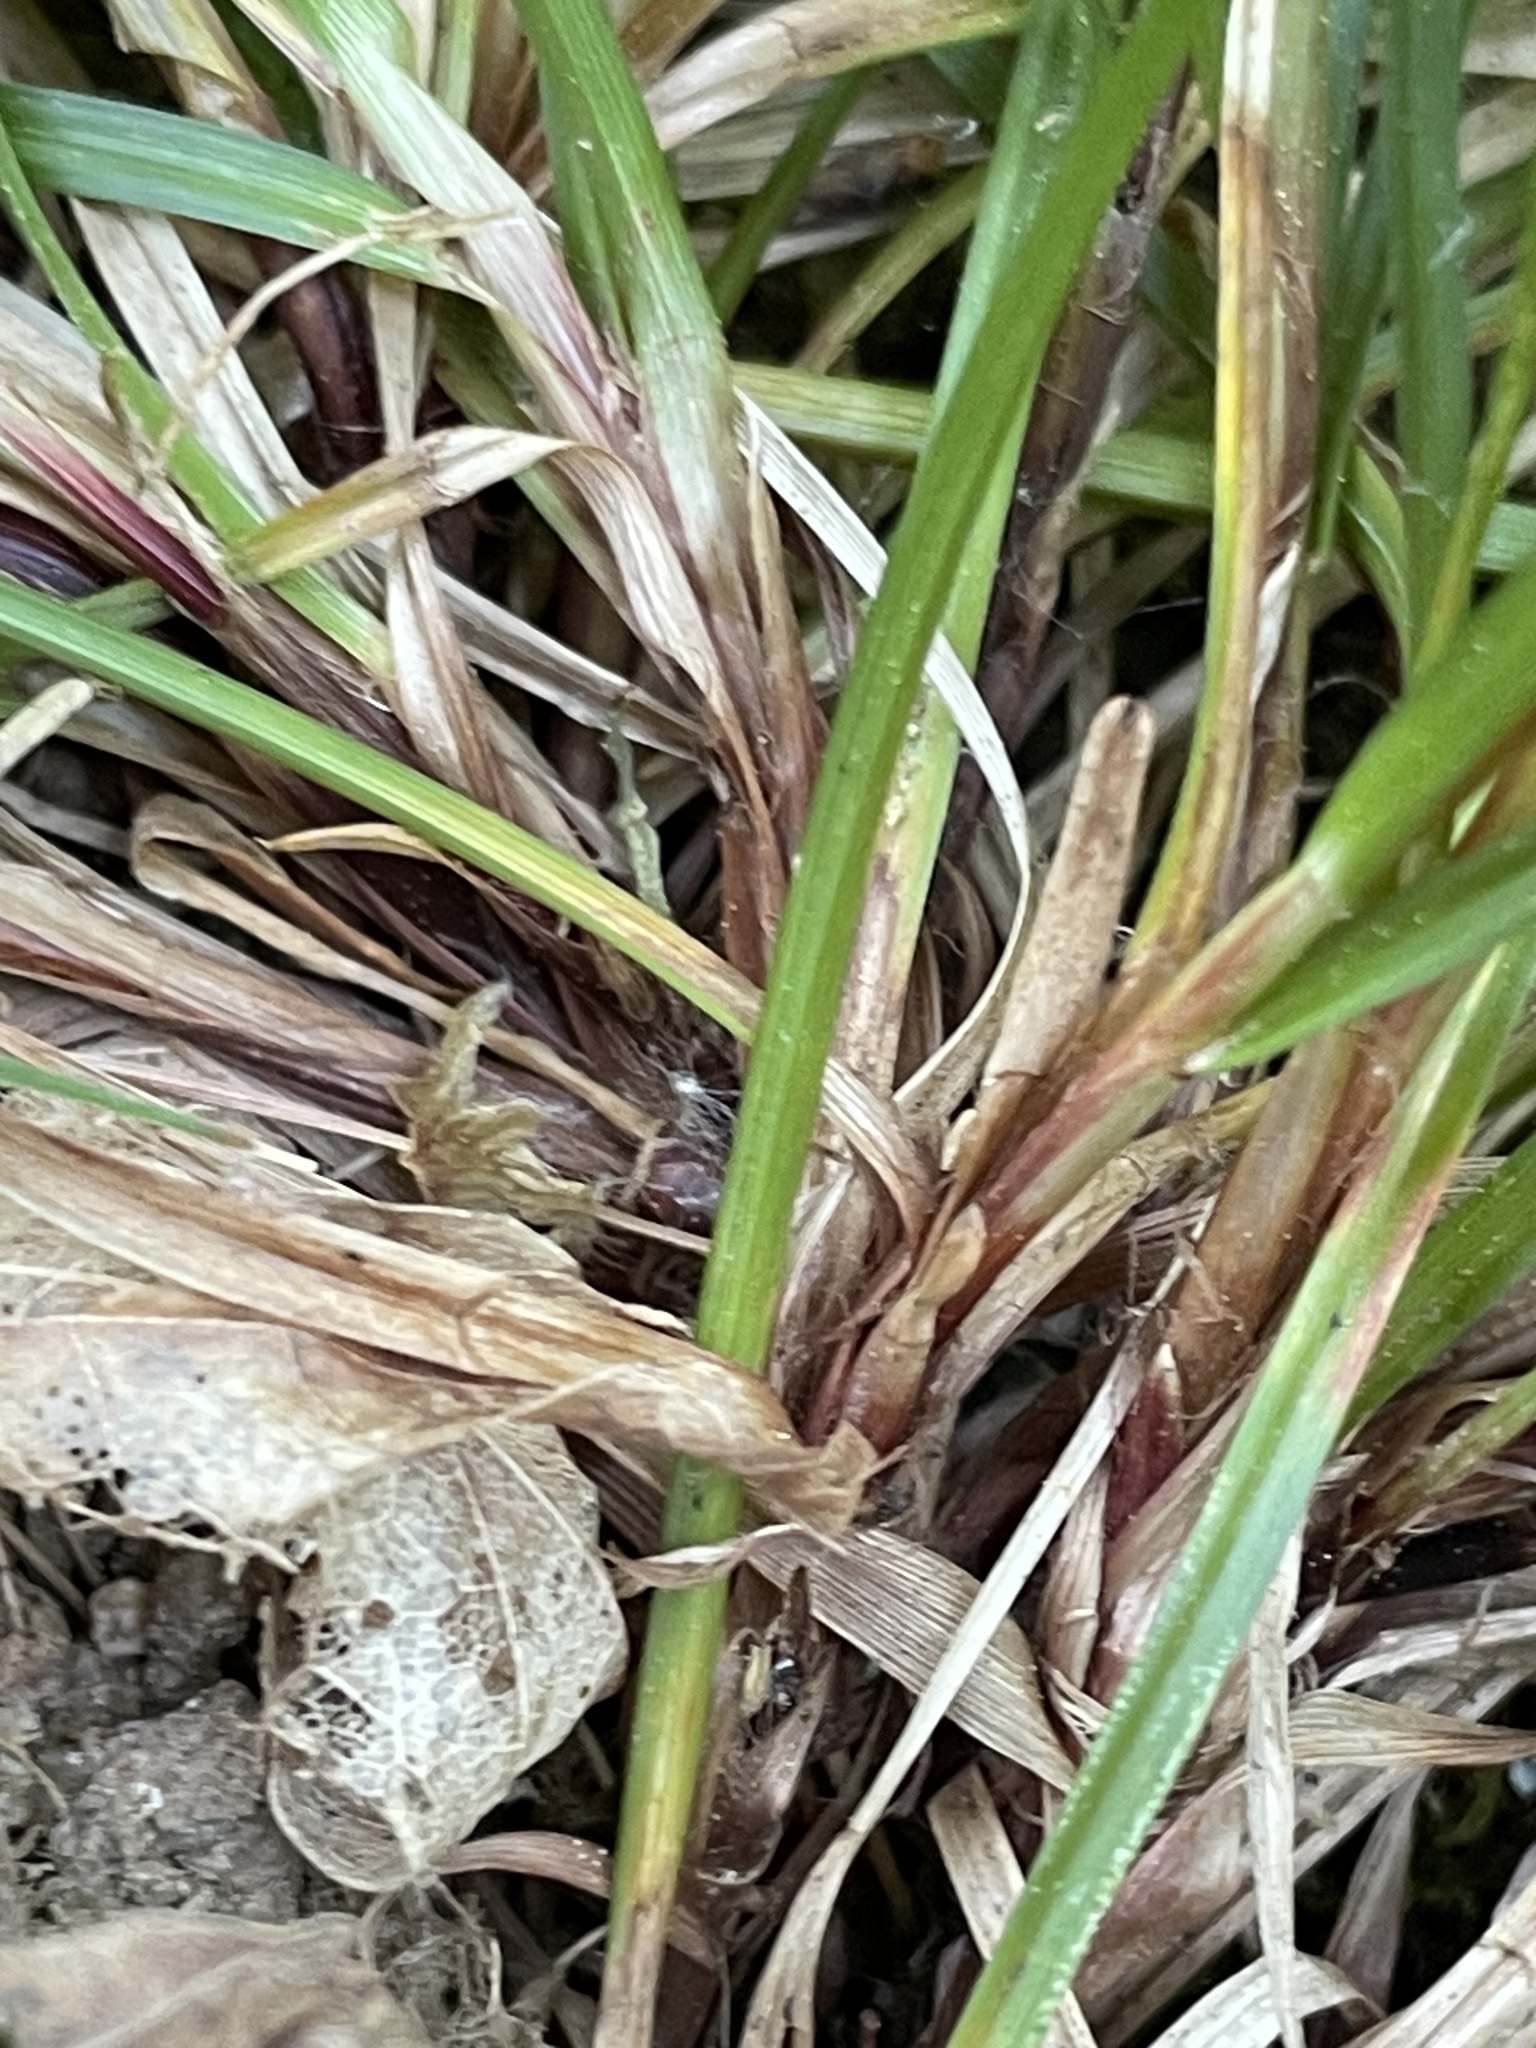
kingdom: Plantae
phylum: Tracheophyta
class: Liliopsida
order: Poales
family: Cyperaceae
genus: Carex
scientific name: Carex peckii
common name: Peck's oak sedge
